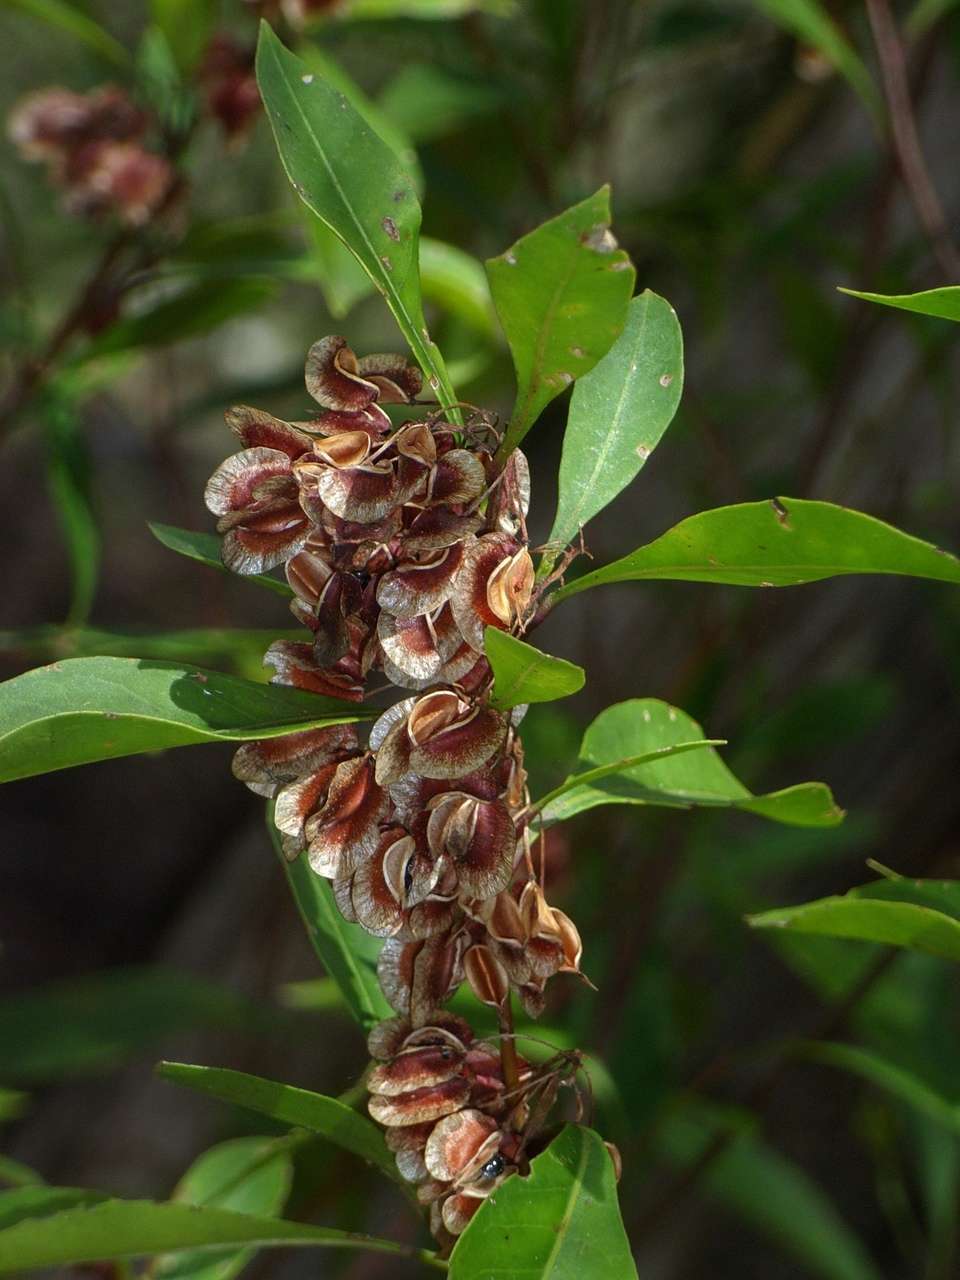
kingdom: Plantae
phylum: Tracheophyta
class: Magnoliopsida
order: Sapindales
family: Sapindaceae
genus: Dodonaea
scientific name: Dodonaea triquetra
